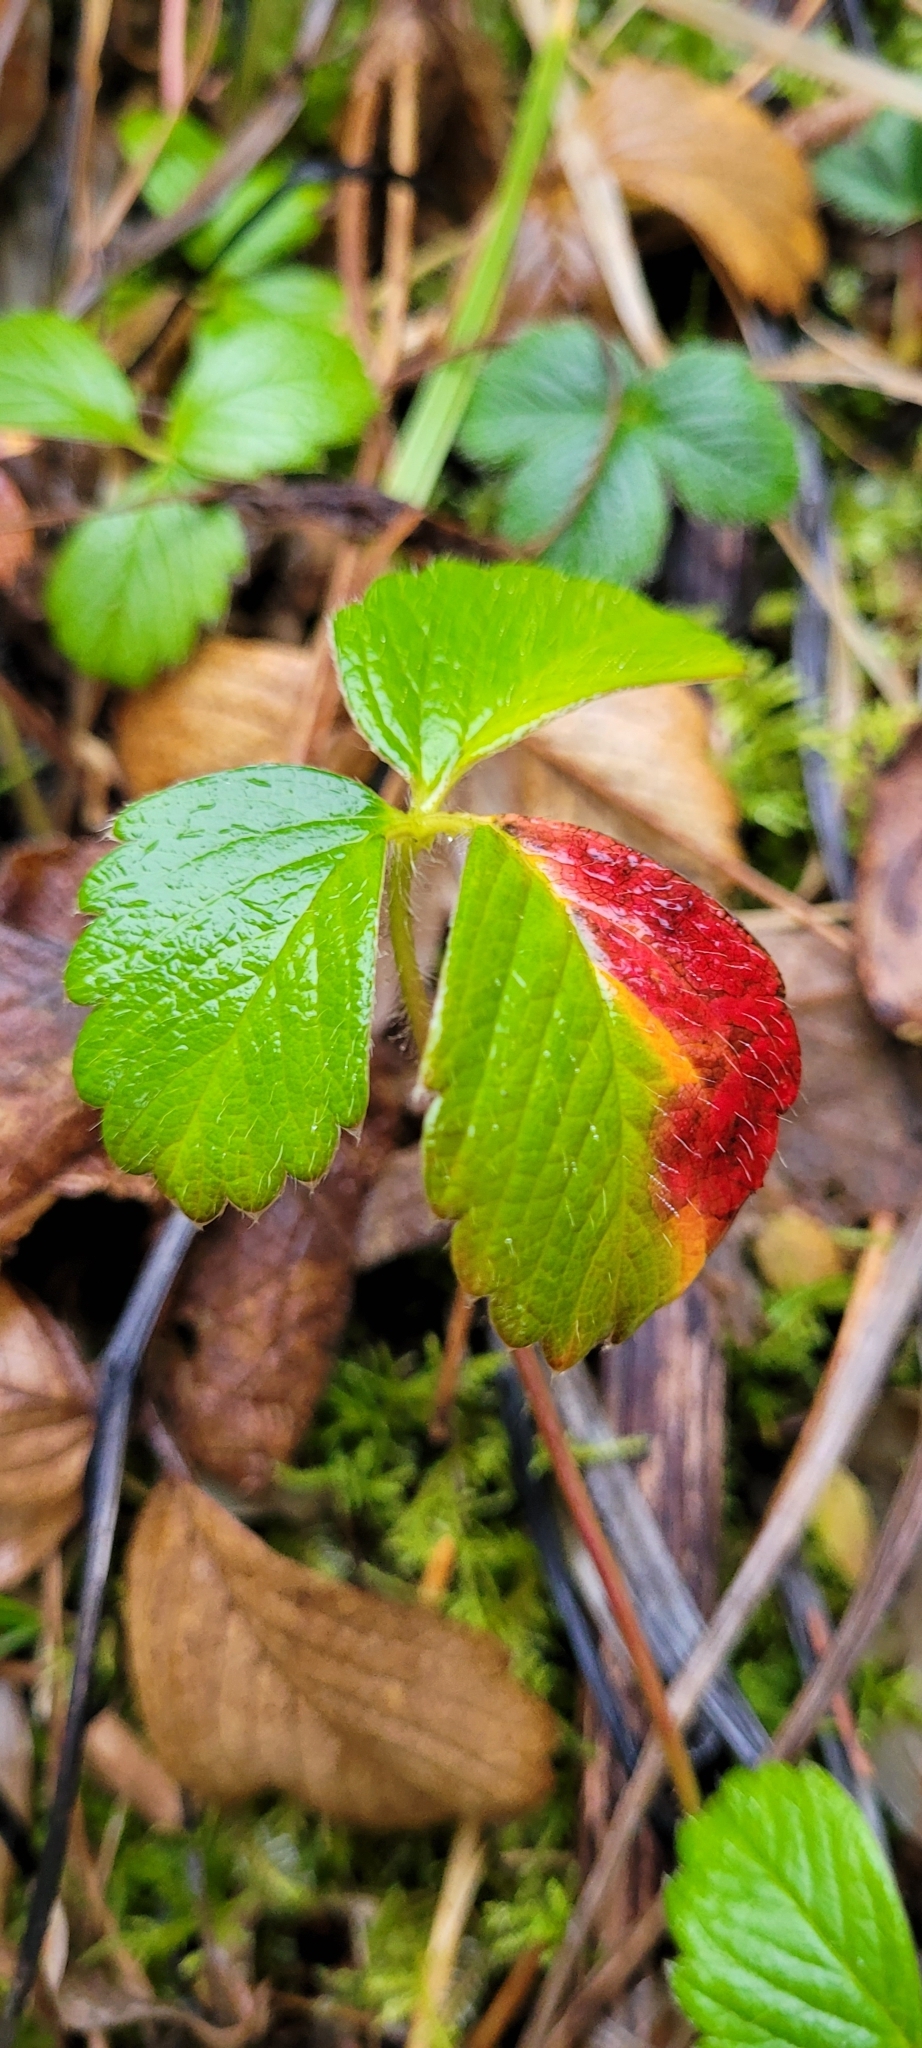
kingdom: Plantae
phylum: Tracheophyta
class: Magnoliopsida
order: Rosales
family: Rosaceae
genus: Fragaria
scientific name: Fragaria chiloensis
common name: Beach strawberry
